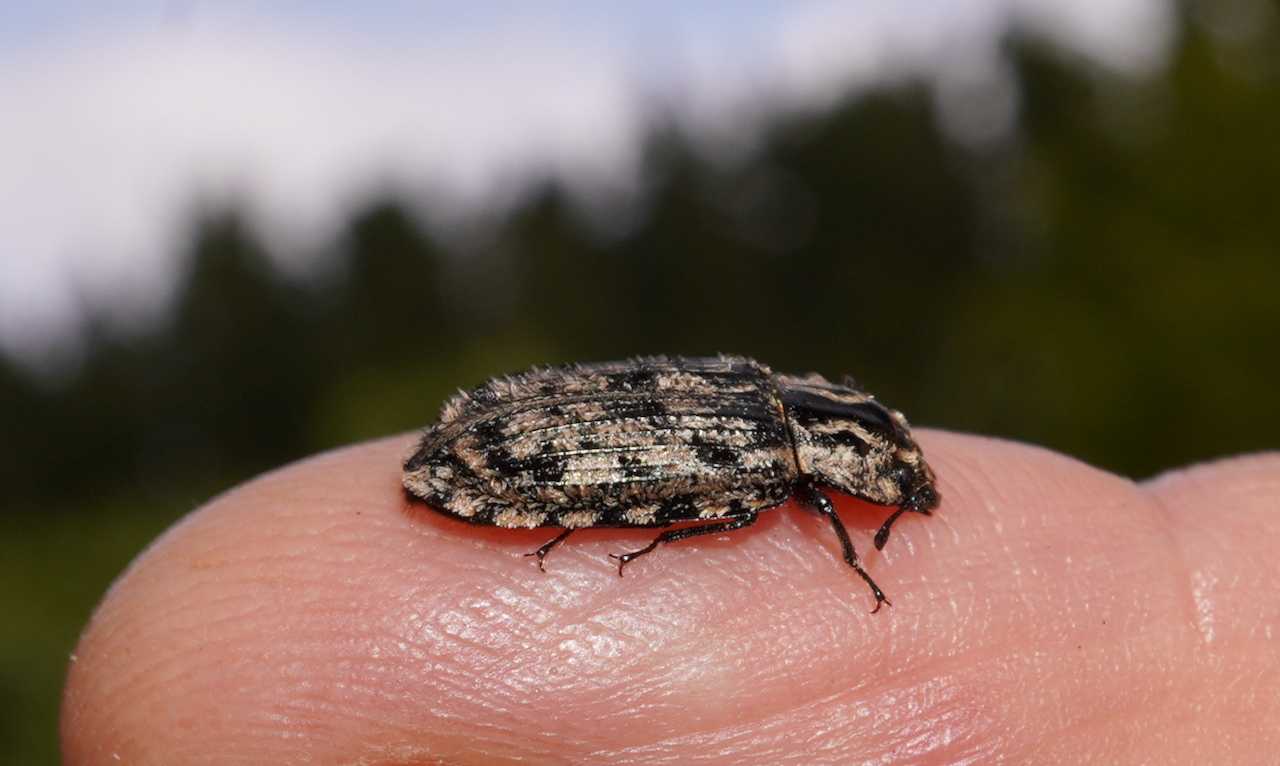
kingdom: Animalia
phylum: Arthropoda
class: Insecta
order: Coleoptera
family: Trogossitidae
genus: Phanodesta
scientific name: Phanodesta
